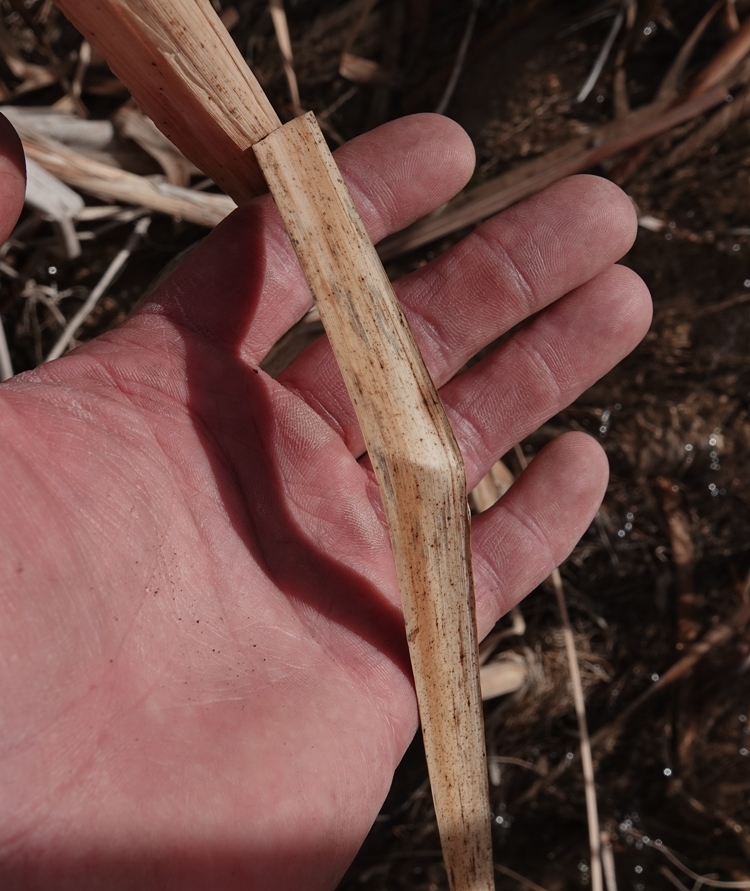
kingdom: Plantae
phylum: Tracheophyta
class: Liliopsida
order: Poales
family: Typhaceae
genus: Typha
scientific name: Typha latifolia
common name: Broadleaf cattail
